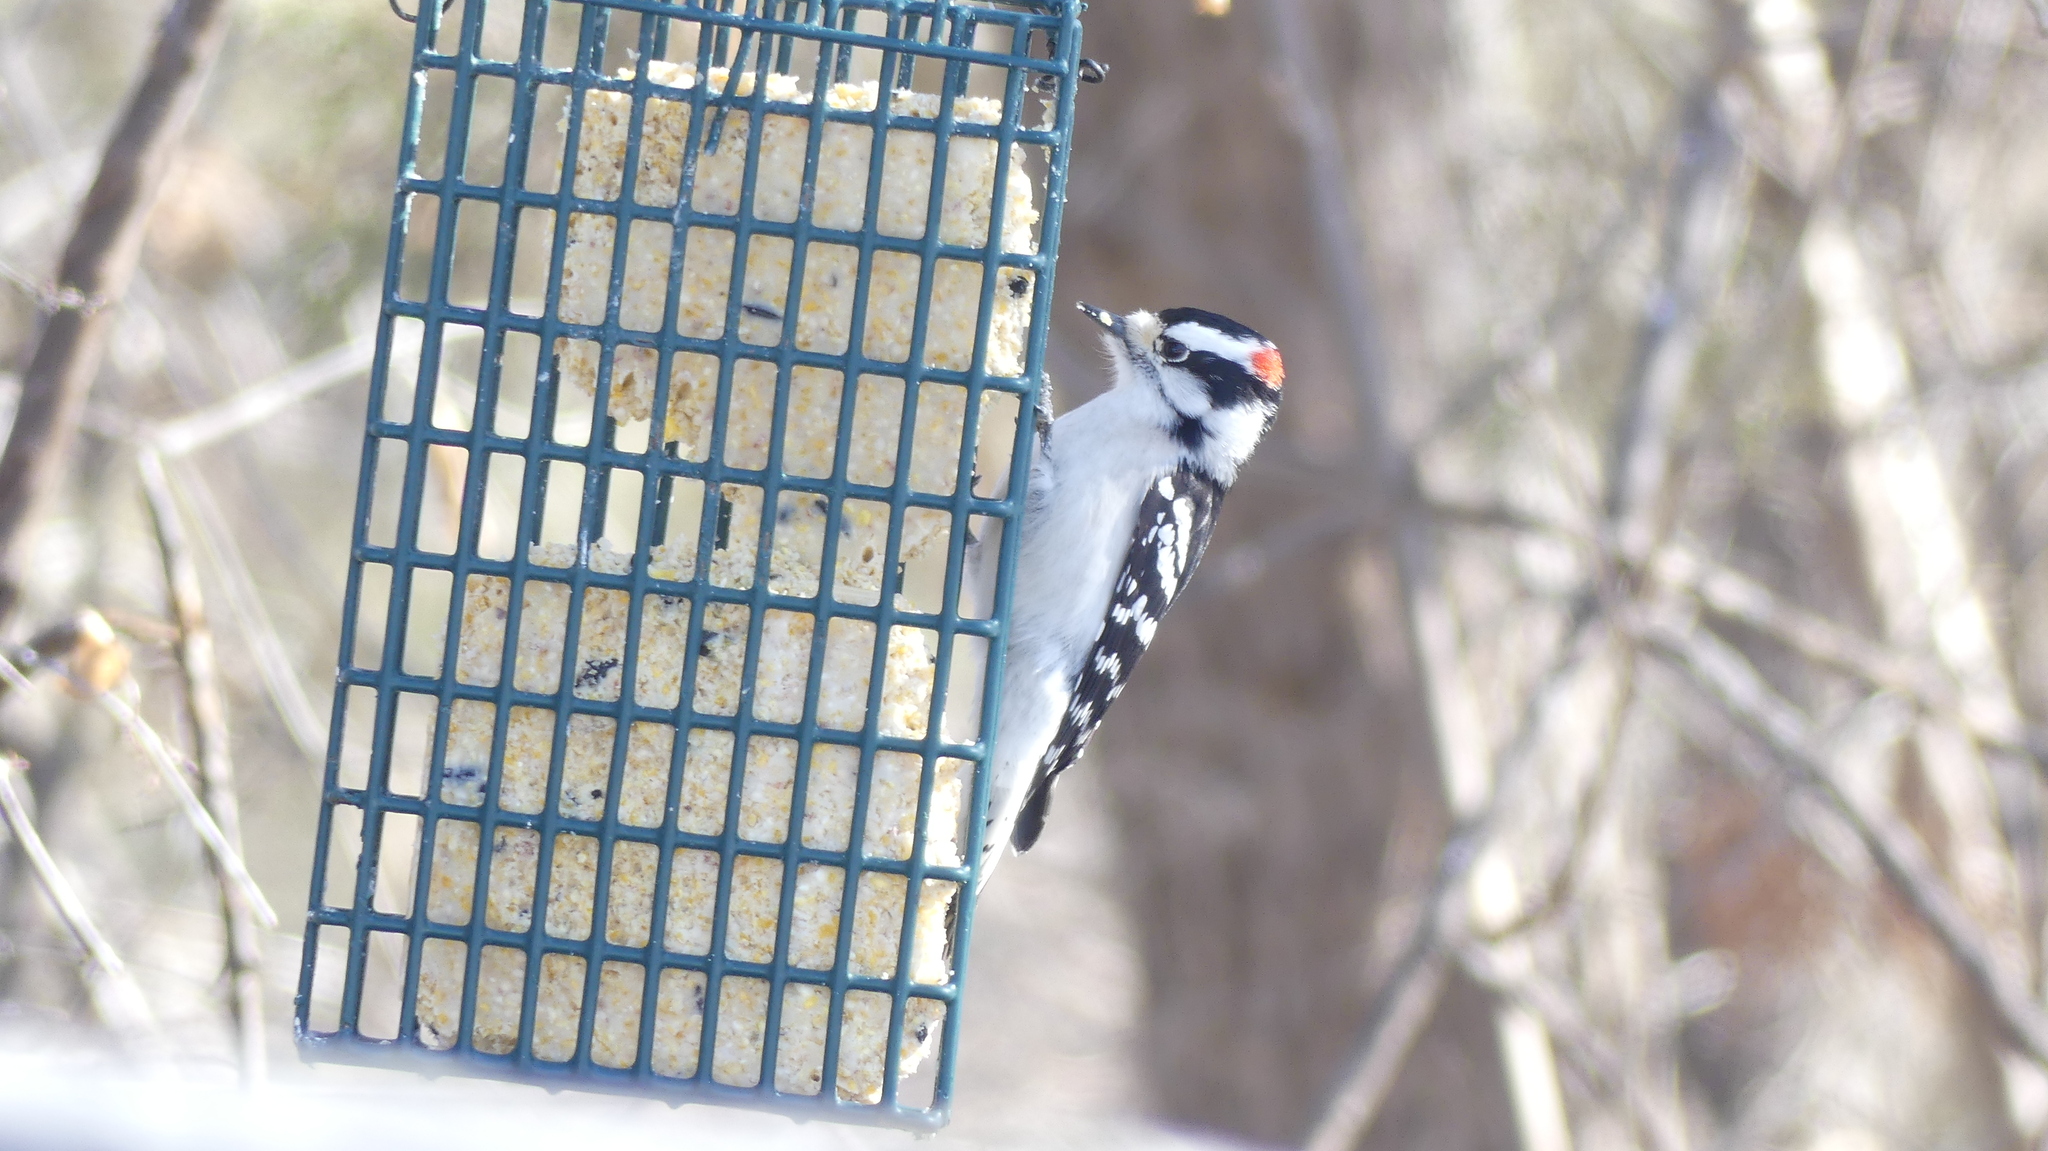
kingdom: Animalia
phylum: Chordata
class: Aves
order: Piciformes
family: Picidae
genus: Dryobates
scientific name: Dryobates pubescens
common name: Downy woodpecker
